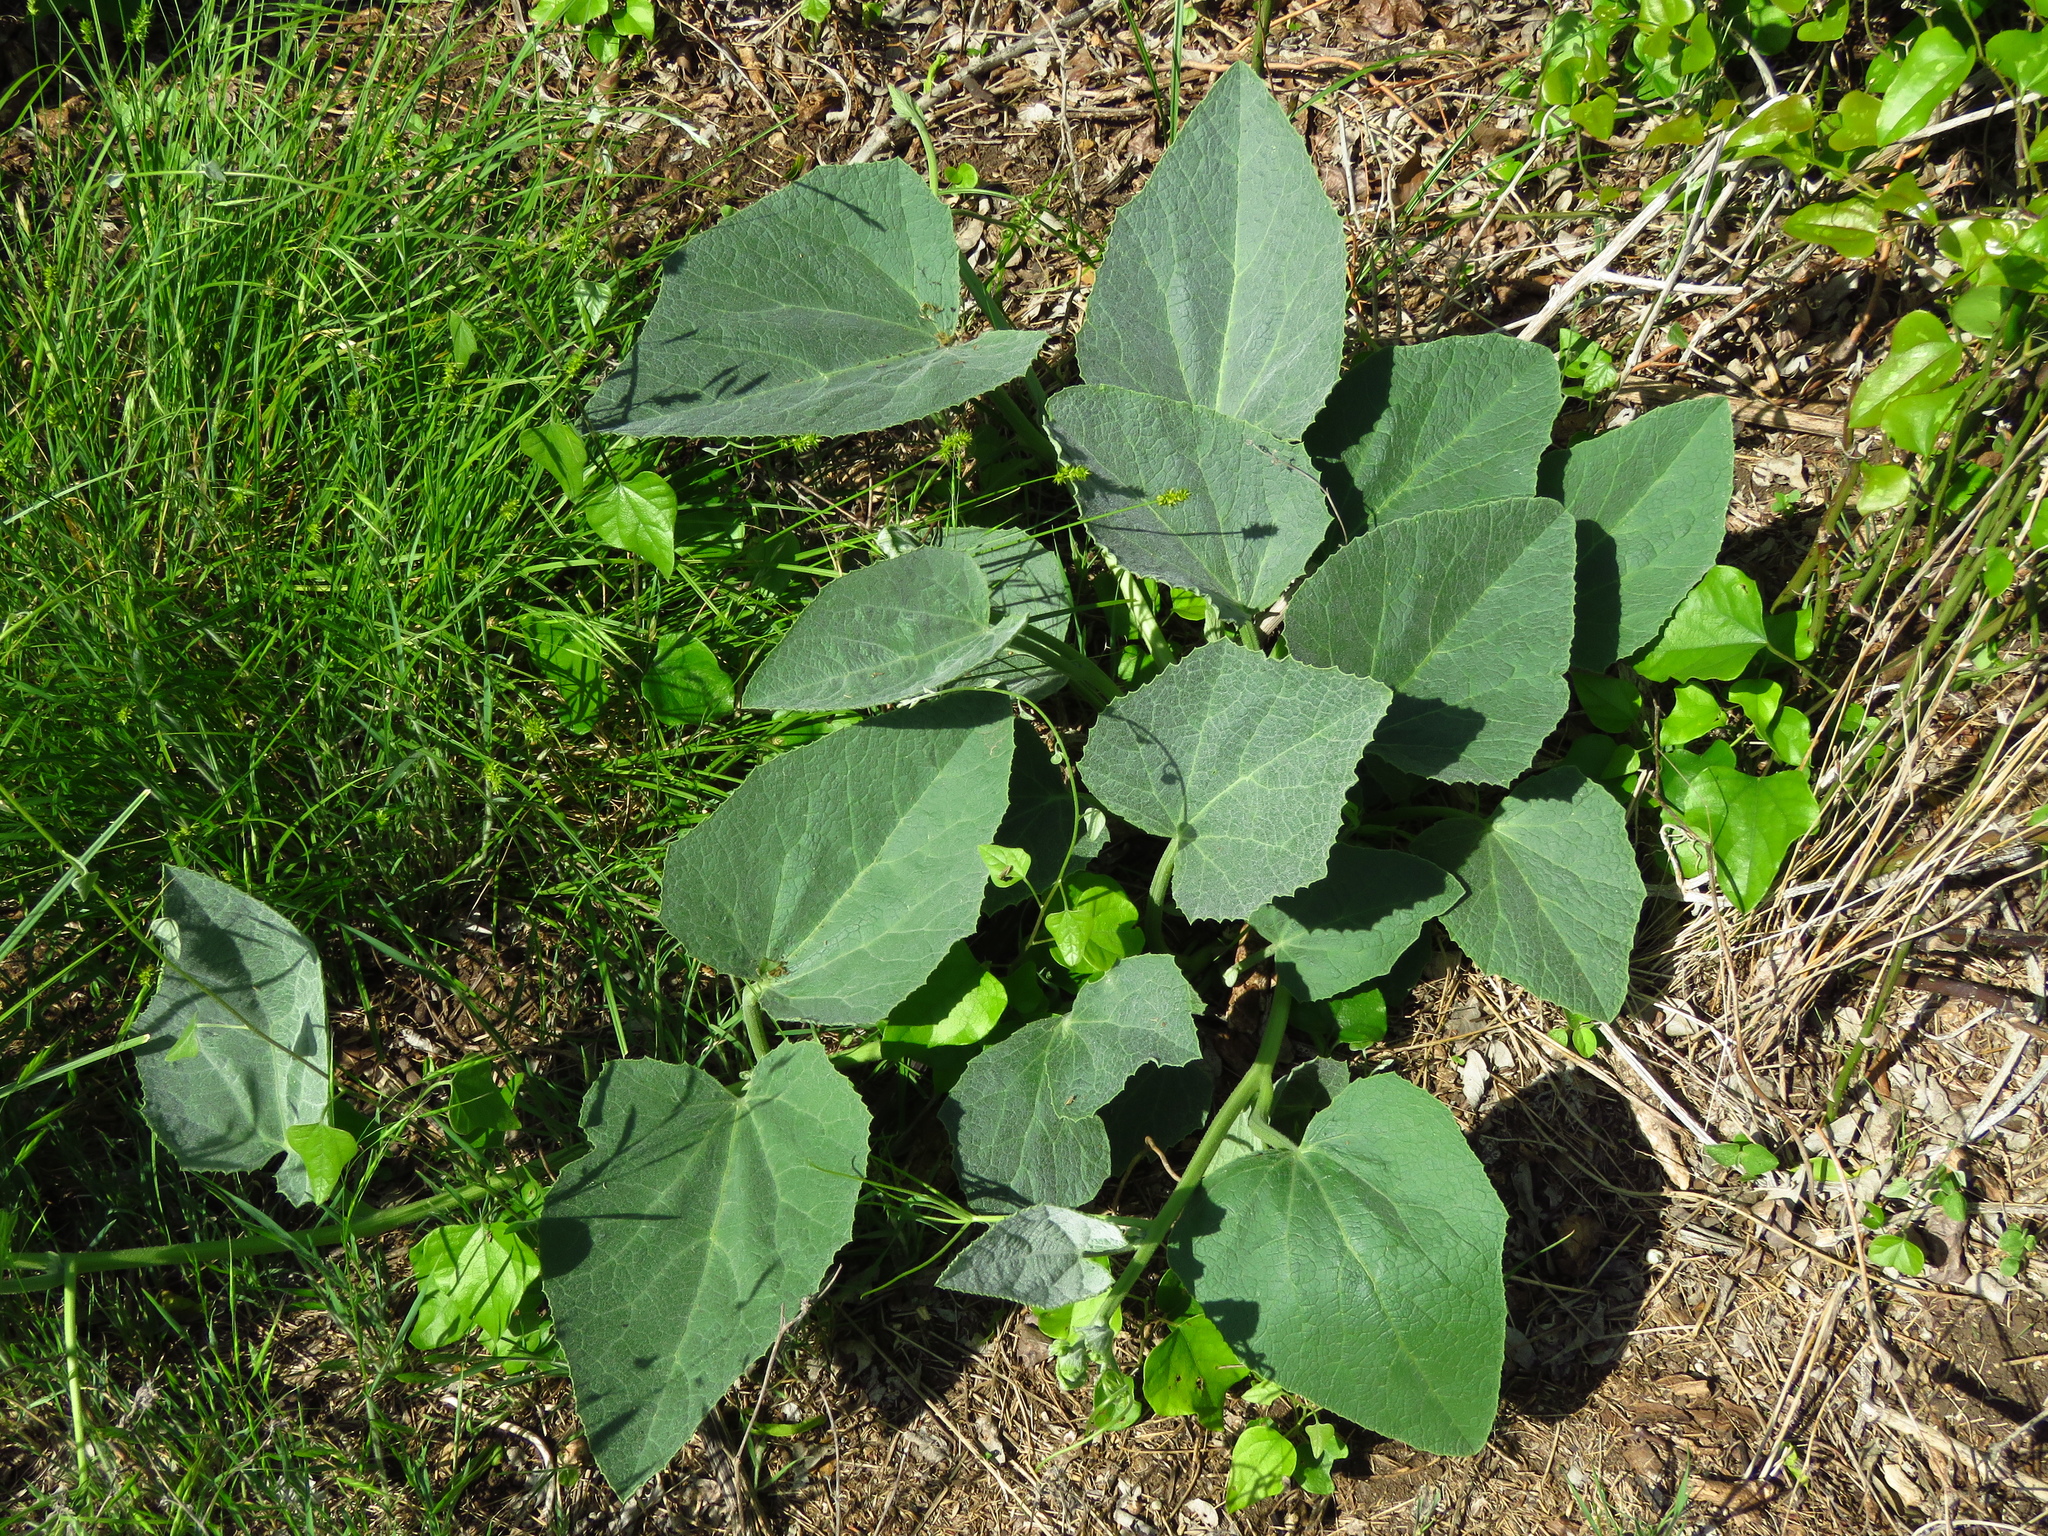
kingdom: Plantae
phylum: Tracheophyta
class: Magnoliopsida
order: Cucurbitales
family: Cucurbitaceae
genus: Cucurbita
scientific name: Cucurbita foetidissima
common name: Buffalo gourd
